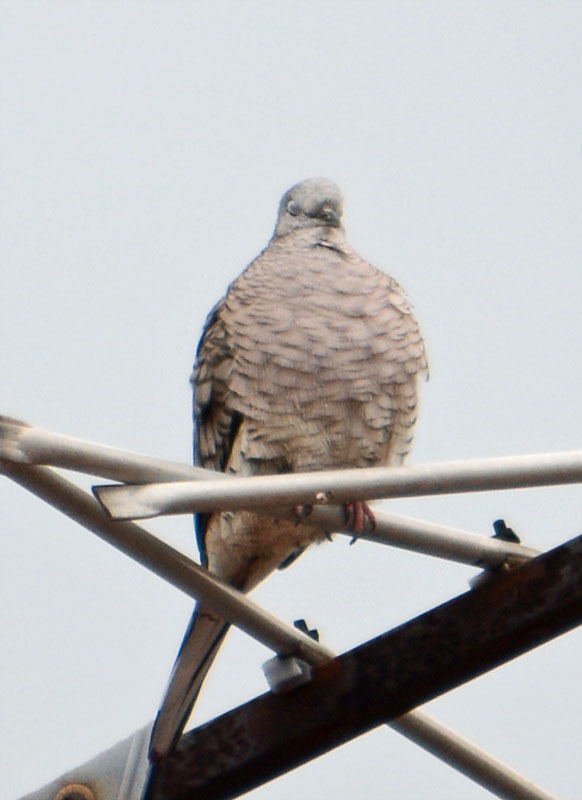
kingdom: Animalia
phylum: Chordata
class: Aves
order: Columbiformes
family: Columbidae
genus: Columbina
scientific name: Columbina inca
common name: Inca dove
